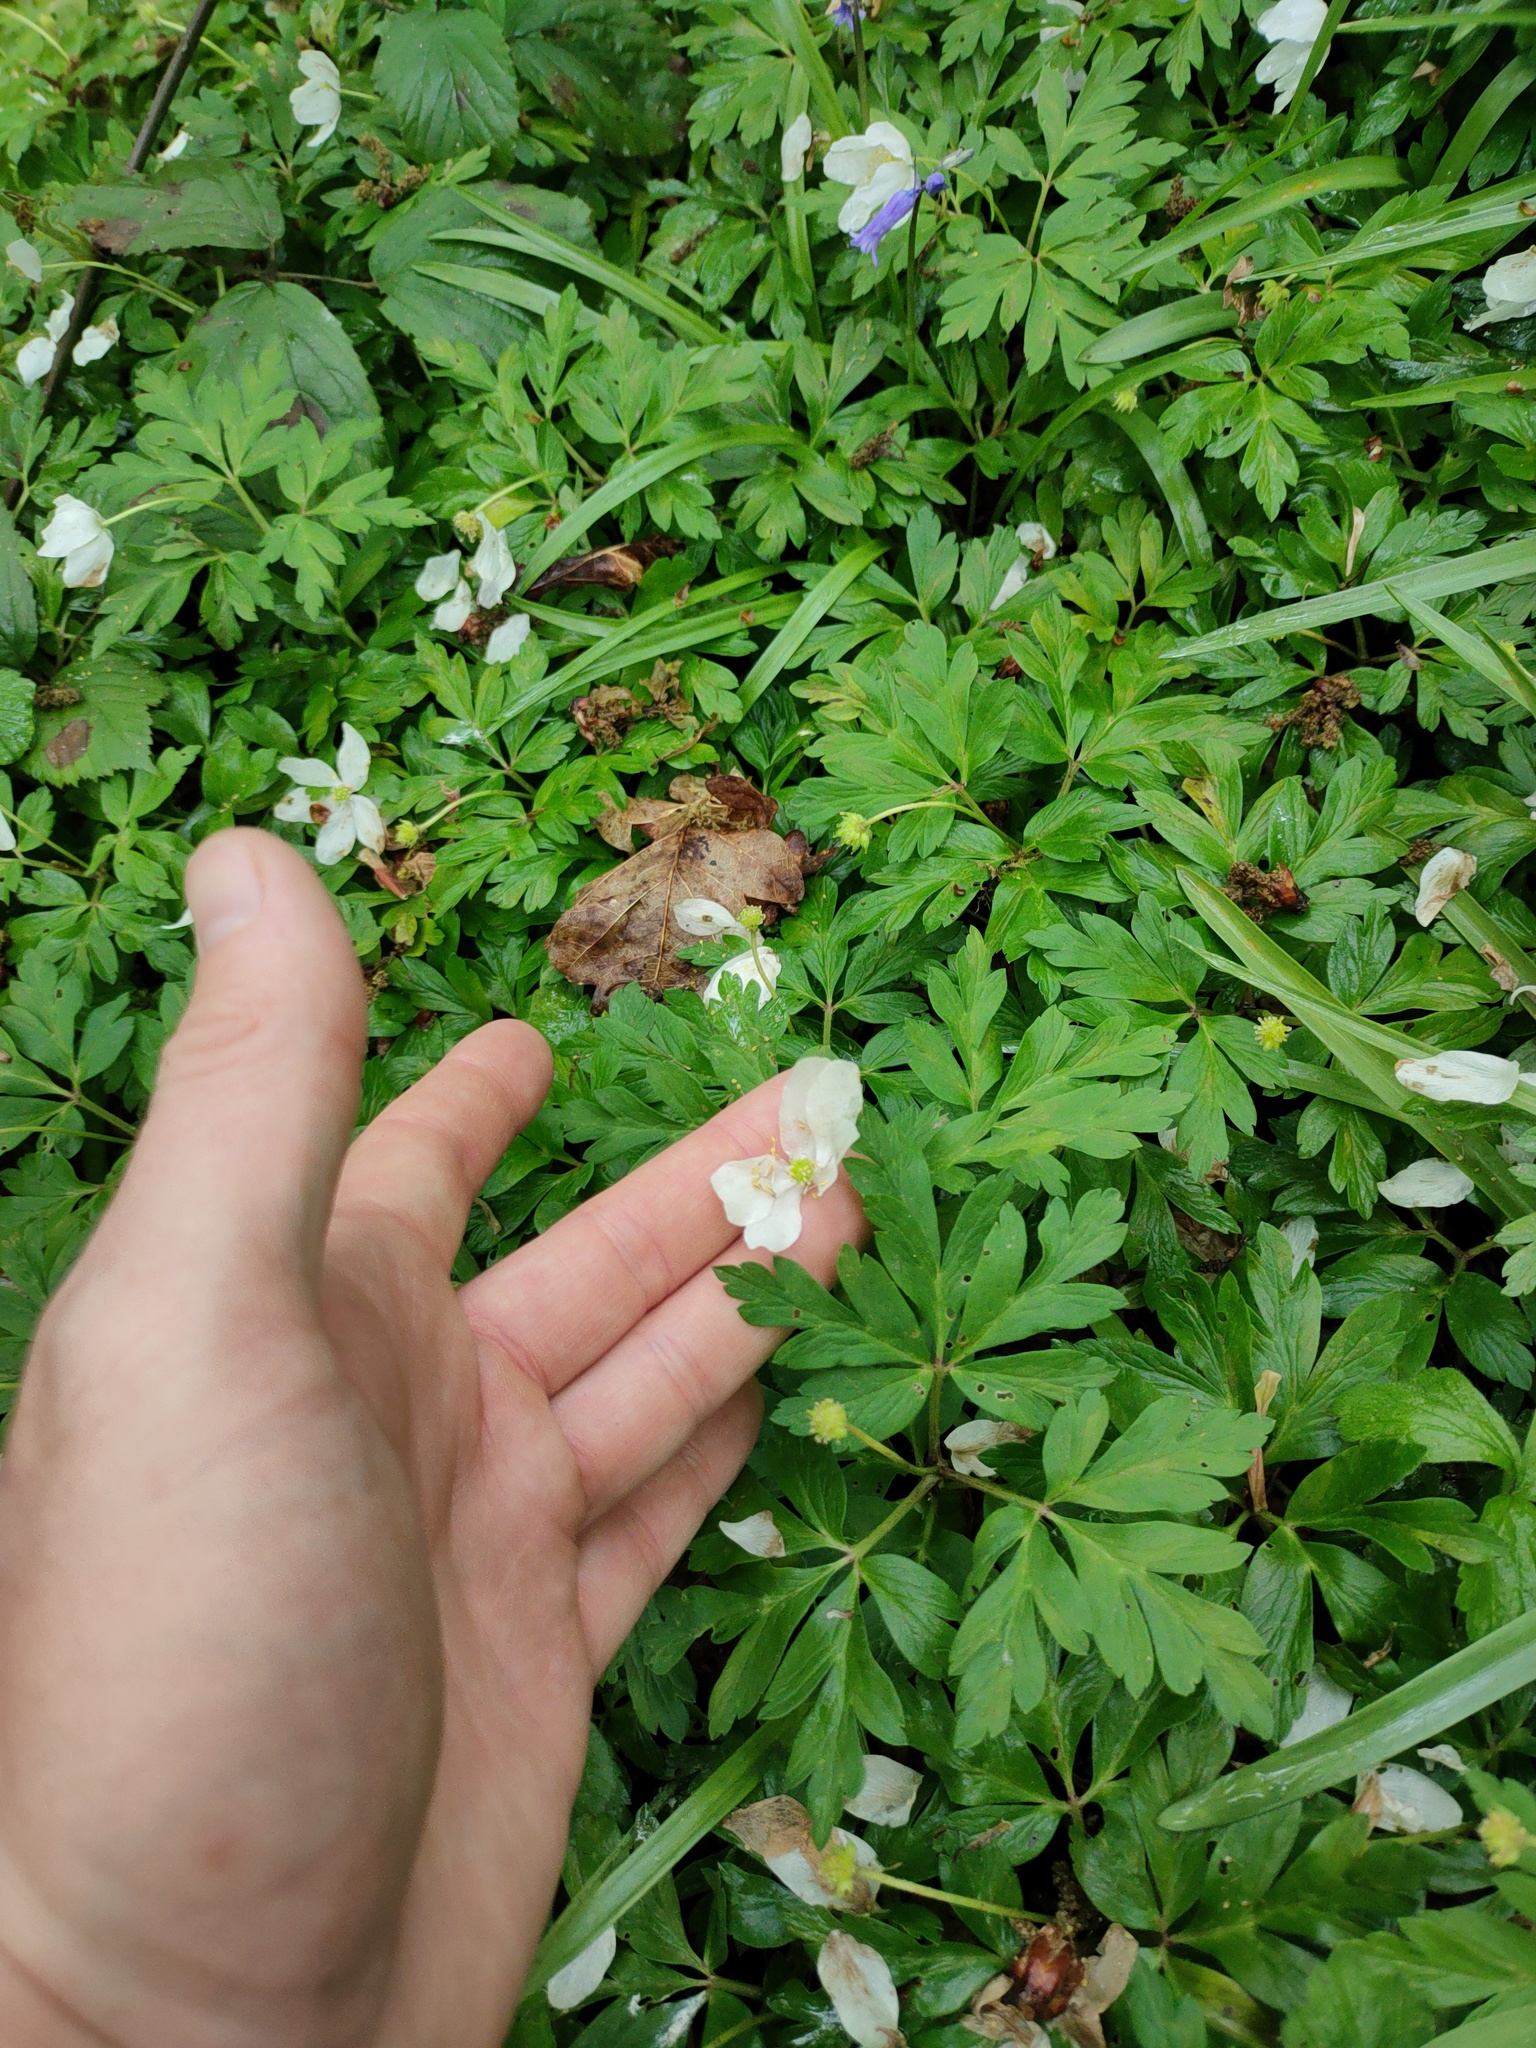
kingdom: Plantae
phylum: Tracheophyta
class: Magnoliopsida
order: Ranunculales
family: Ranunculaceae
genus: Anemone
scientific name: Anemone nemorosa
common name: Wood anemone
